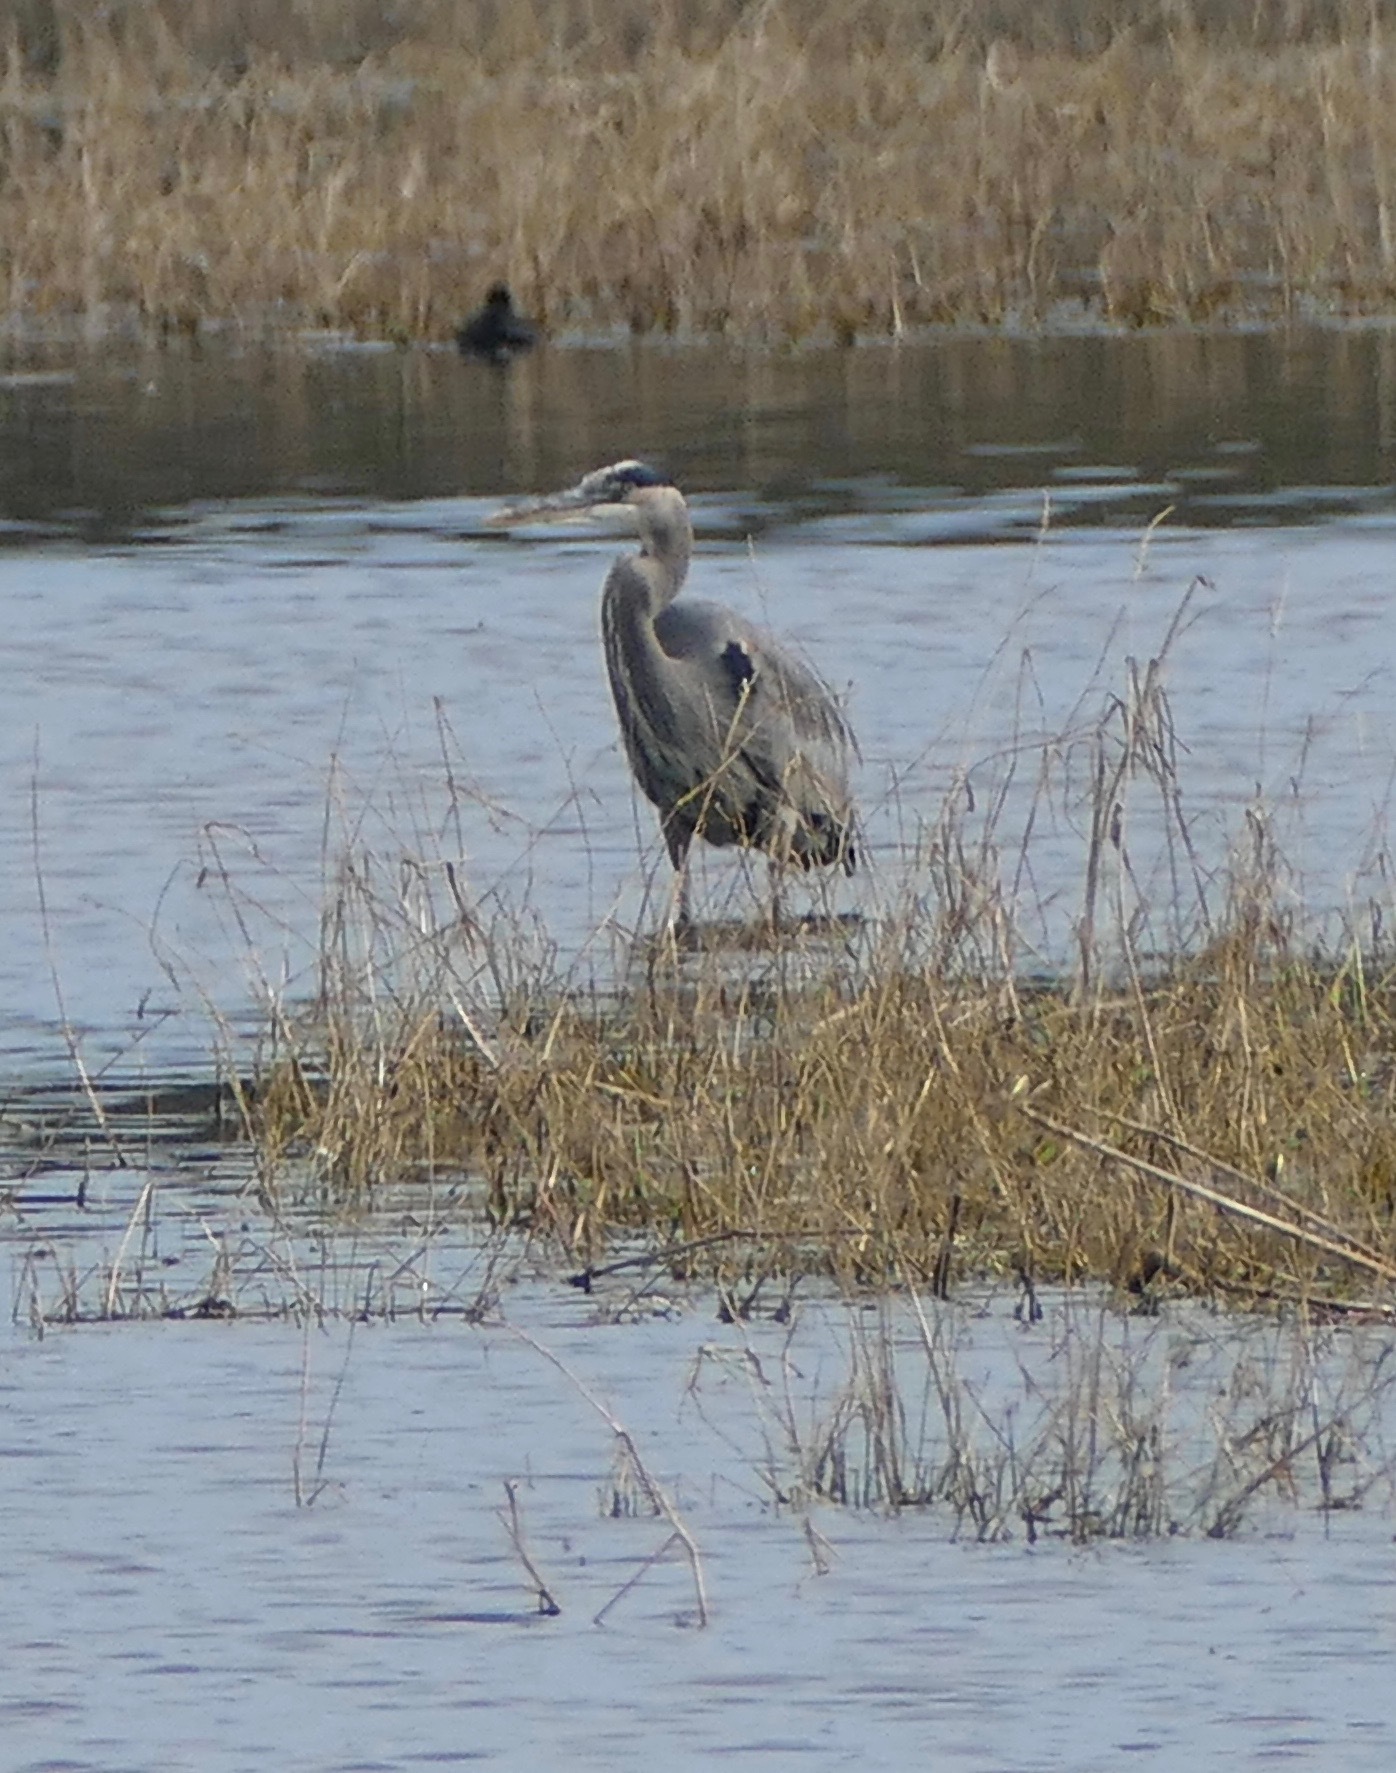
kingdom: Animalia
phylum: Chordata
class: Aves
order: Pelecaniformes
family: Ardeidae
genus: Ardea
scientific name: Ardea herodias
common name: Great blue heron
